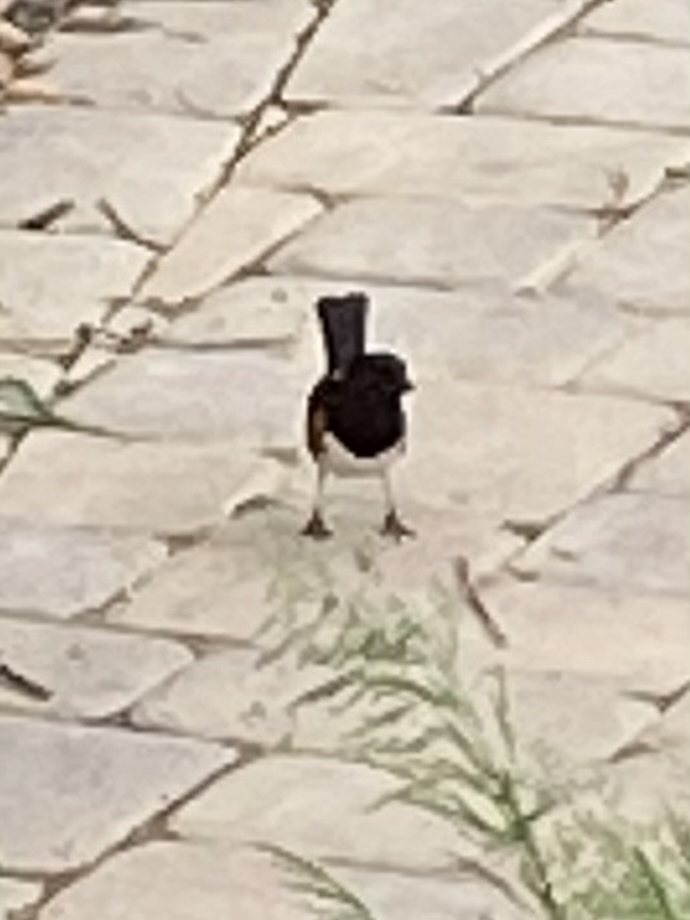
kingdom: Animalia
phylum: Chordata
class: Aves
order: Passeriformes
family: Passerellidae
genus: Pipilo
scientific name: Pipilo erythrophthalmus
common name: Eastern towhee
